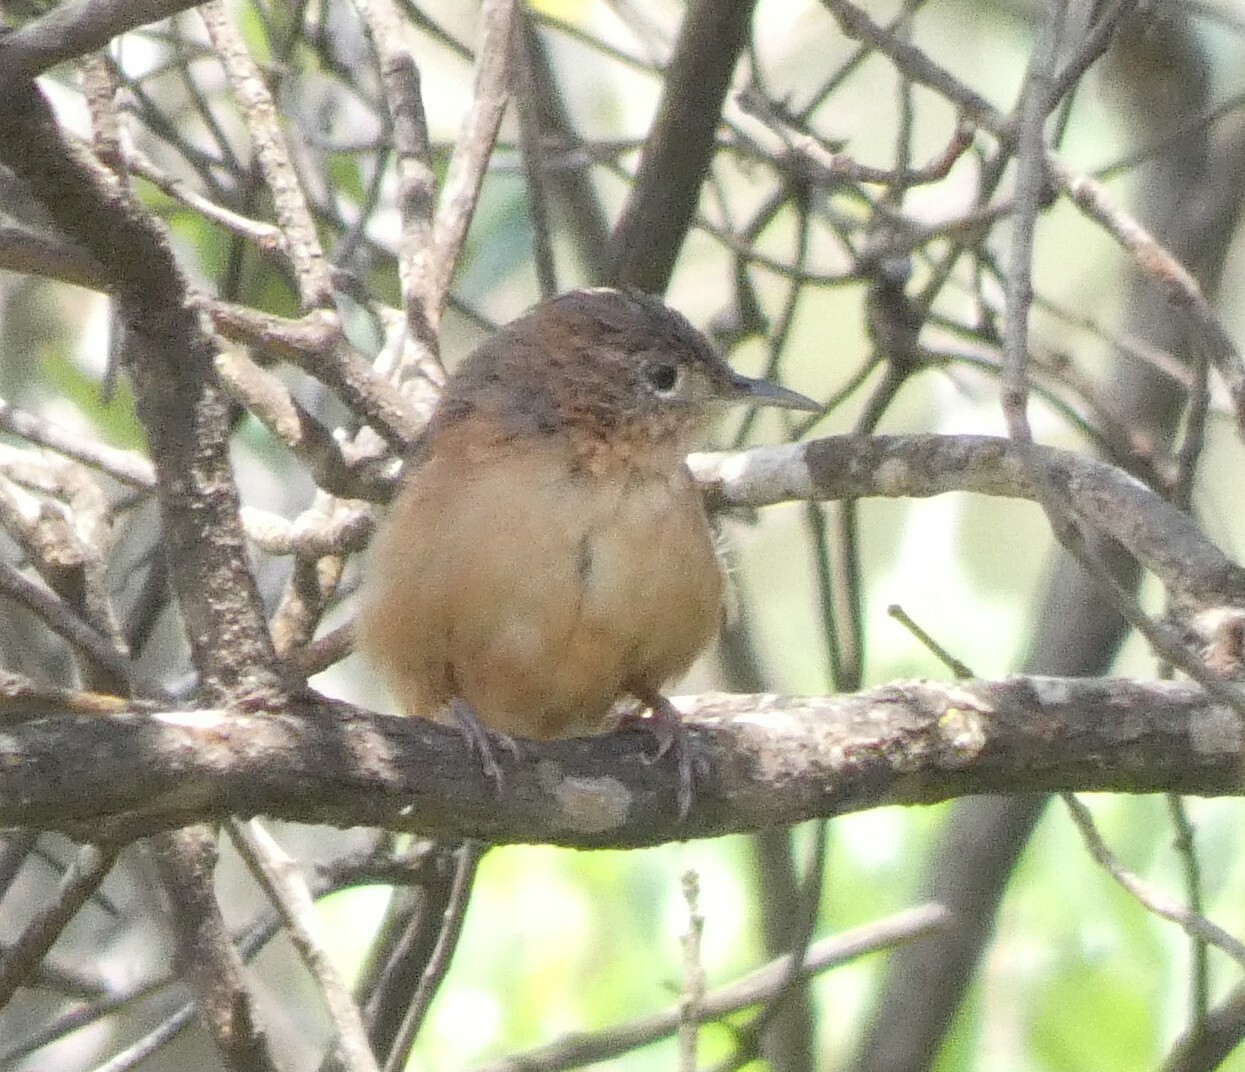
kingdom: Animalia
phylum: Chordata
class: Aves
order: Passeriformes
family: Troglodytidae
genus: Troglodytes
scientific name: Troglodytes aedon
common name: House wren
